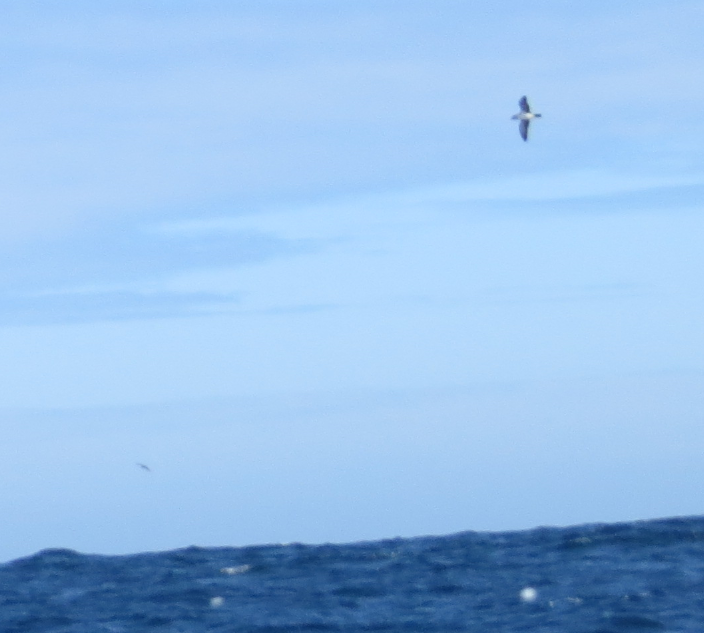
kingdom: Animalia
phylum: Chordata
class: Aves
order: Procellariiformes
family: Procellariidae
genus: Puffinus
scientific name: Puffinus subalaris
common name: Galapagos shearwater
